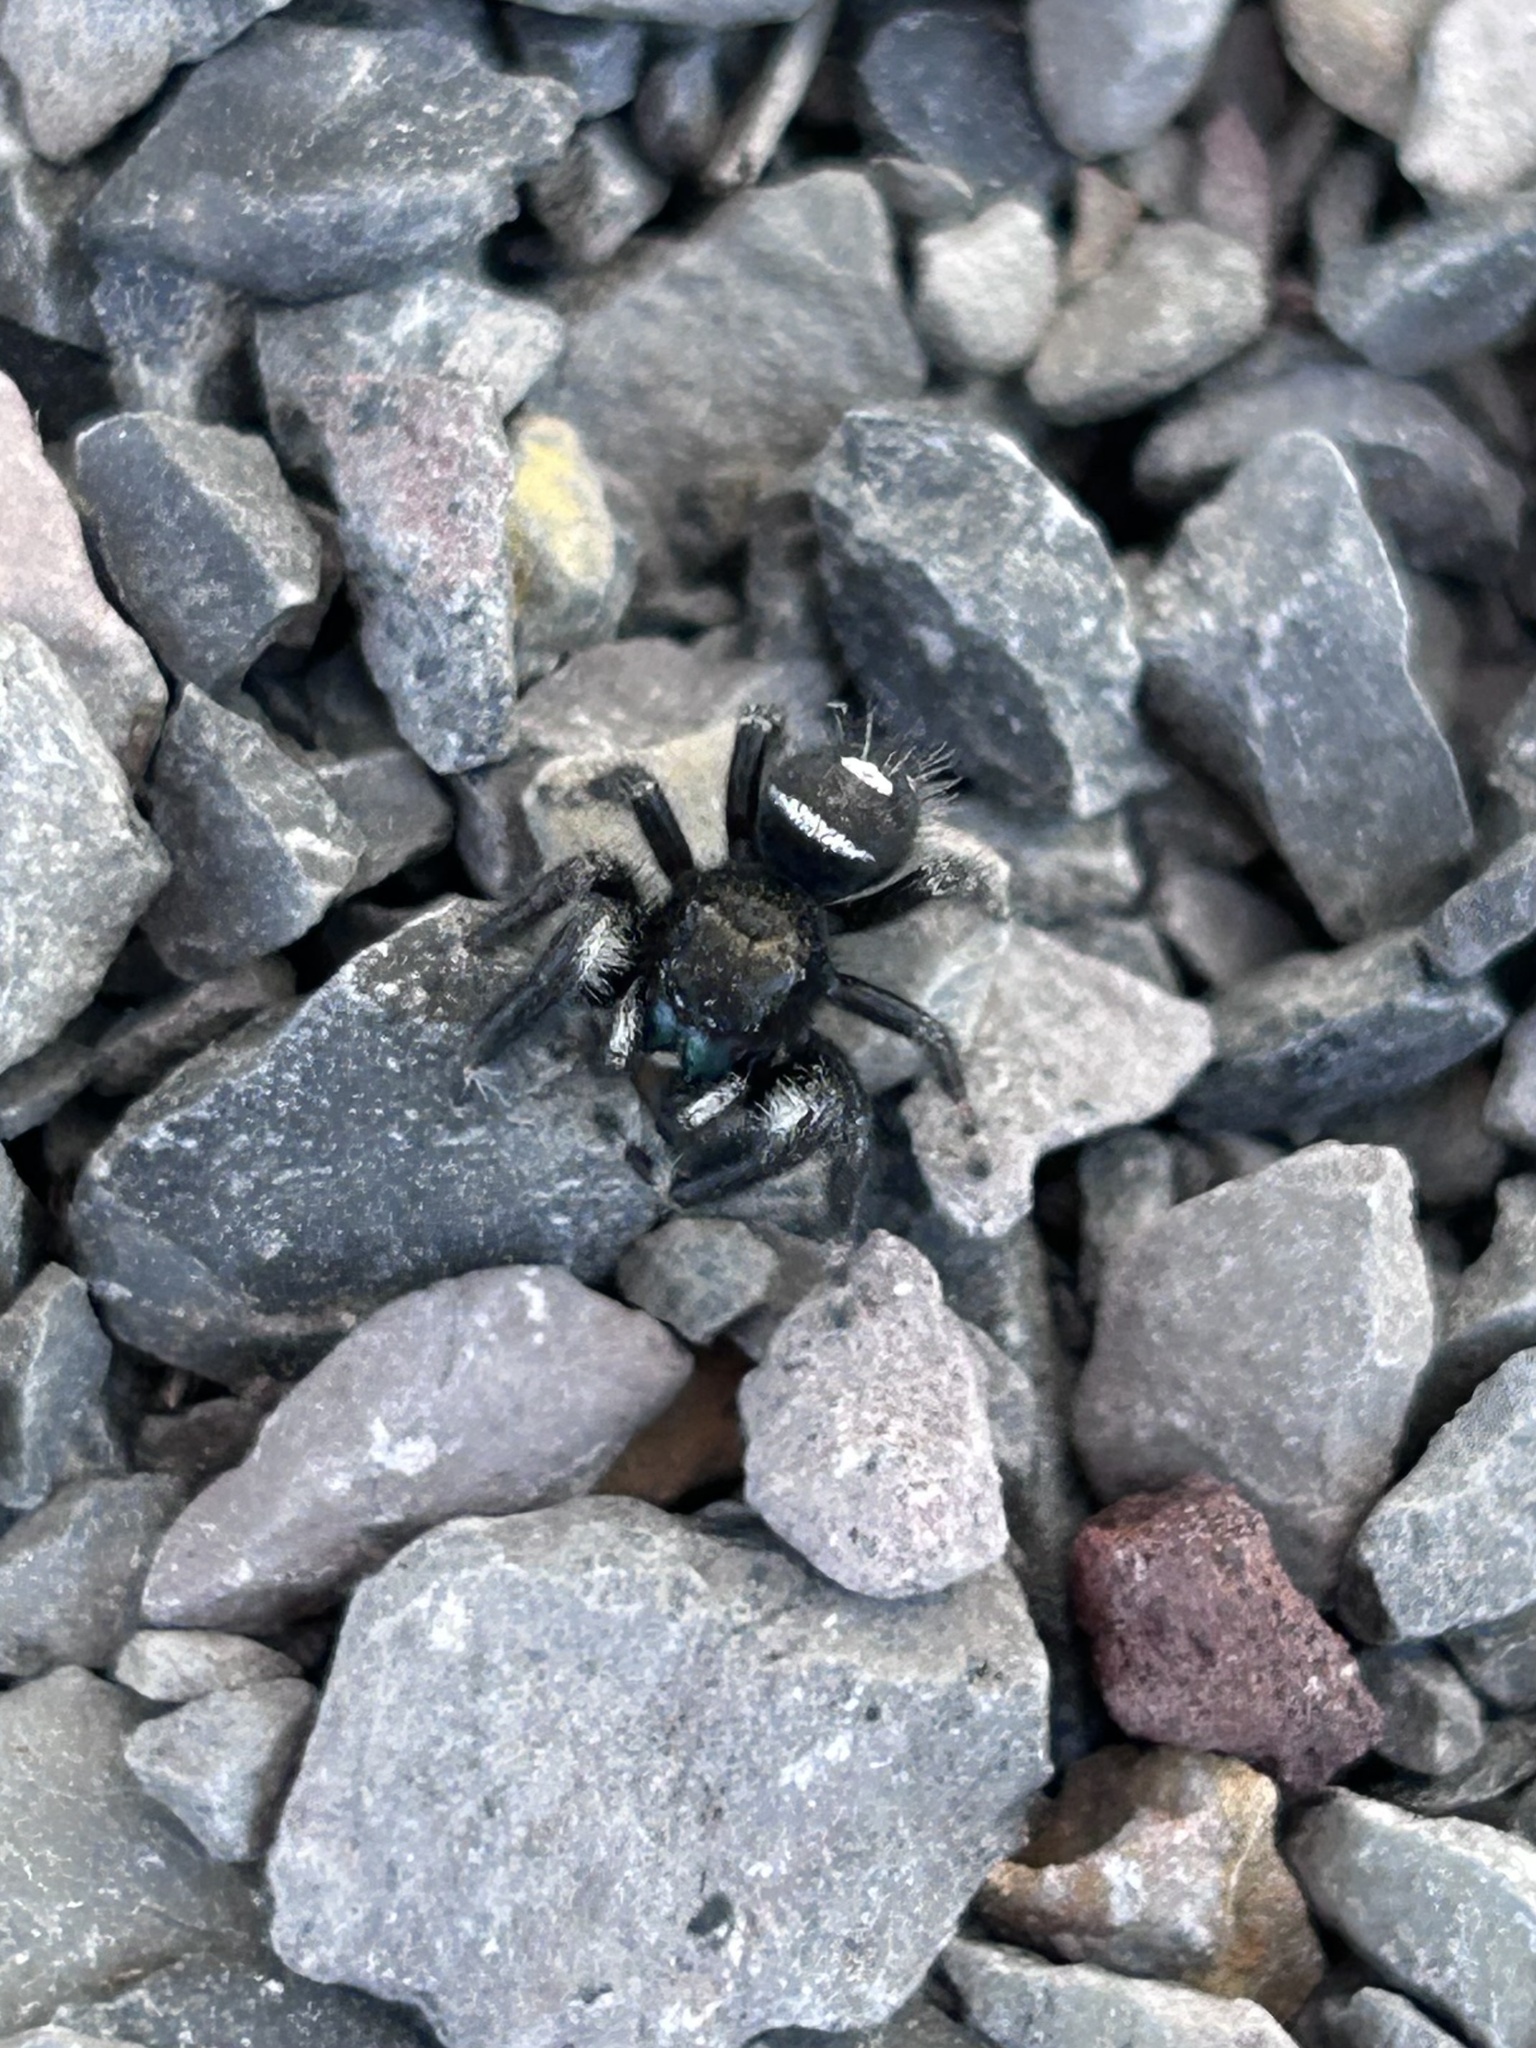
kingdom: Animalia
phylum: Arthropoda
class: Arachnida
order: Araneae
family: Salticidae
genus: Phidippus
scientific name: Phidippus audax
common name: Bold jumper
